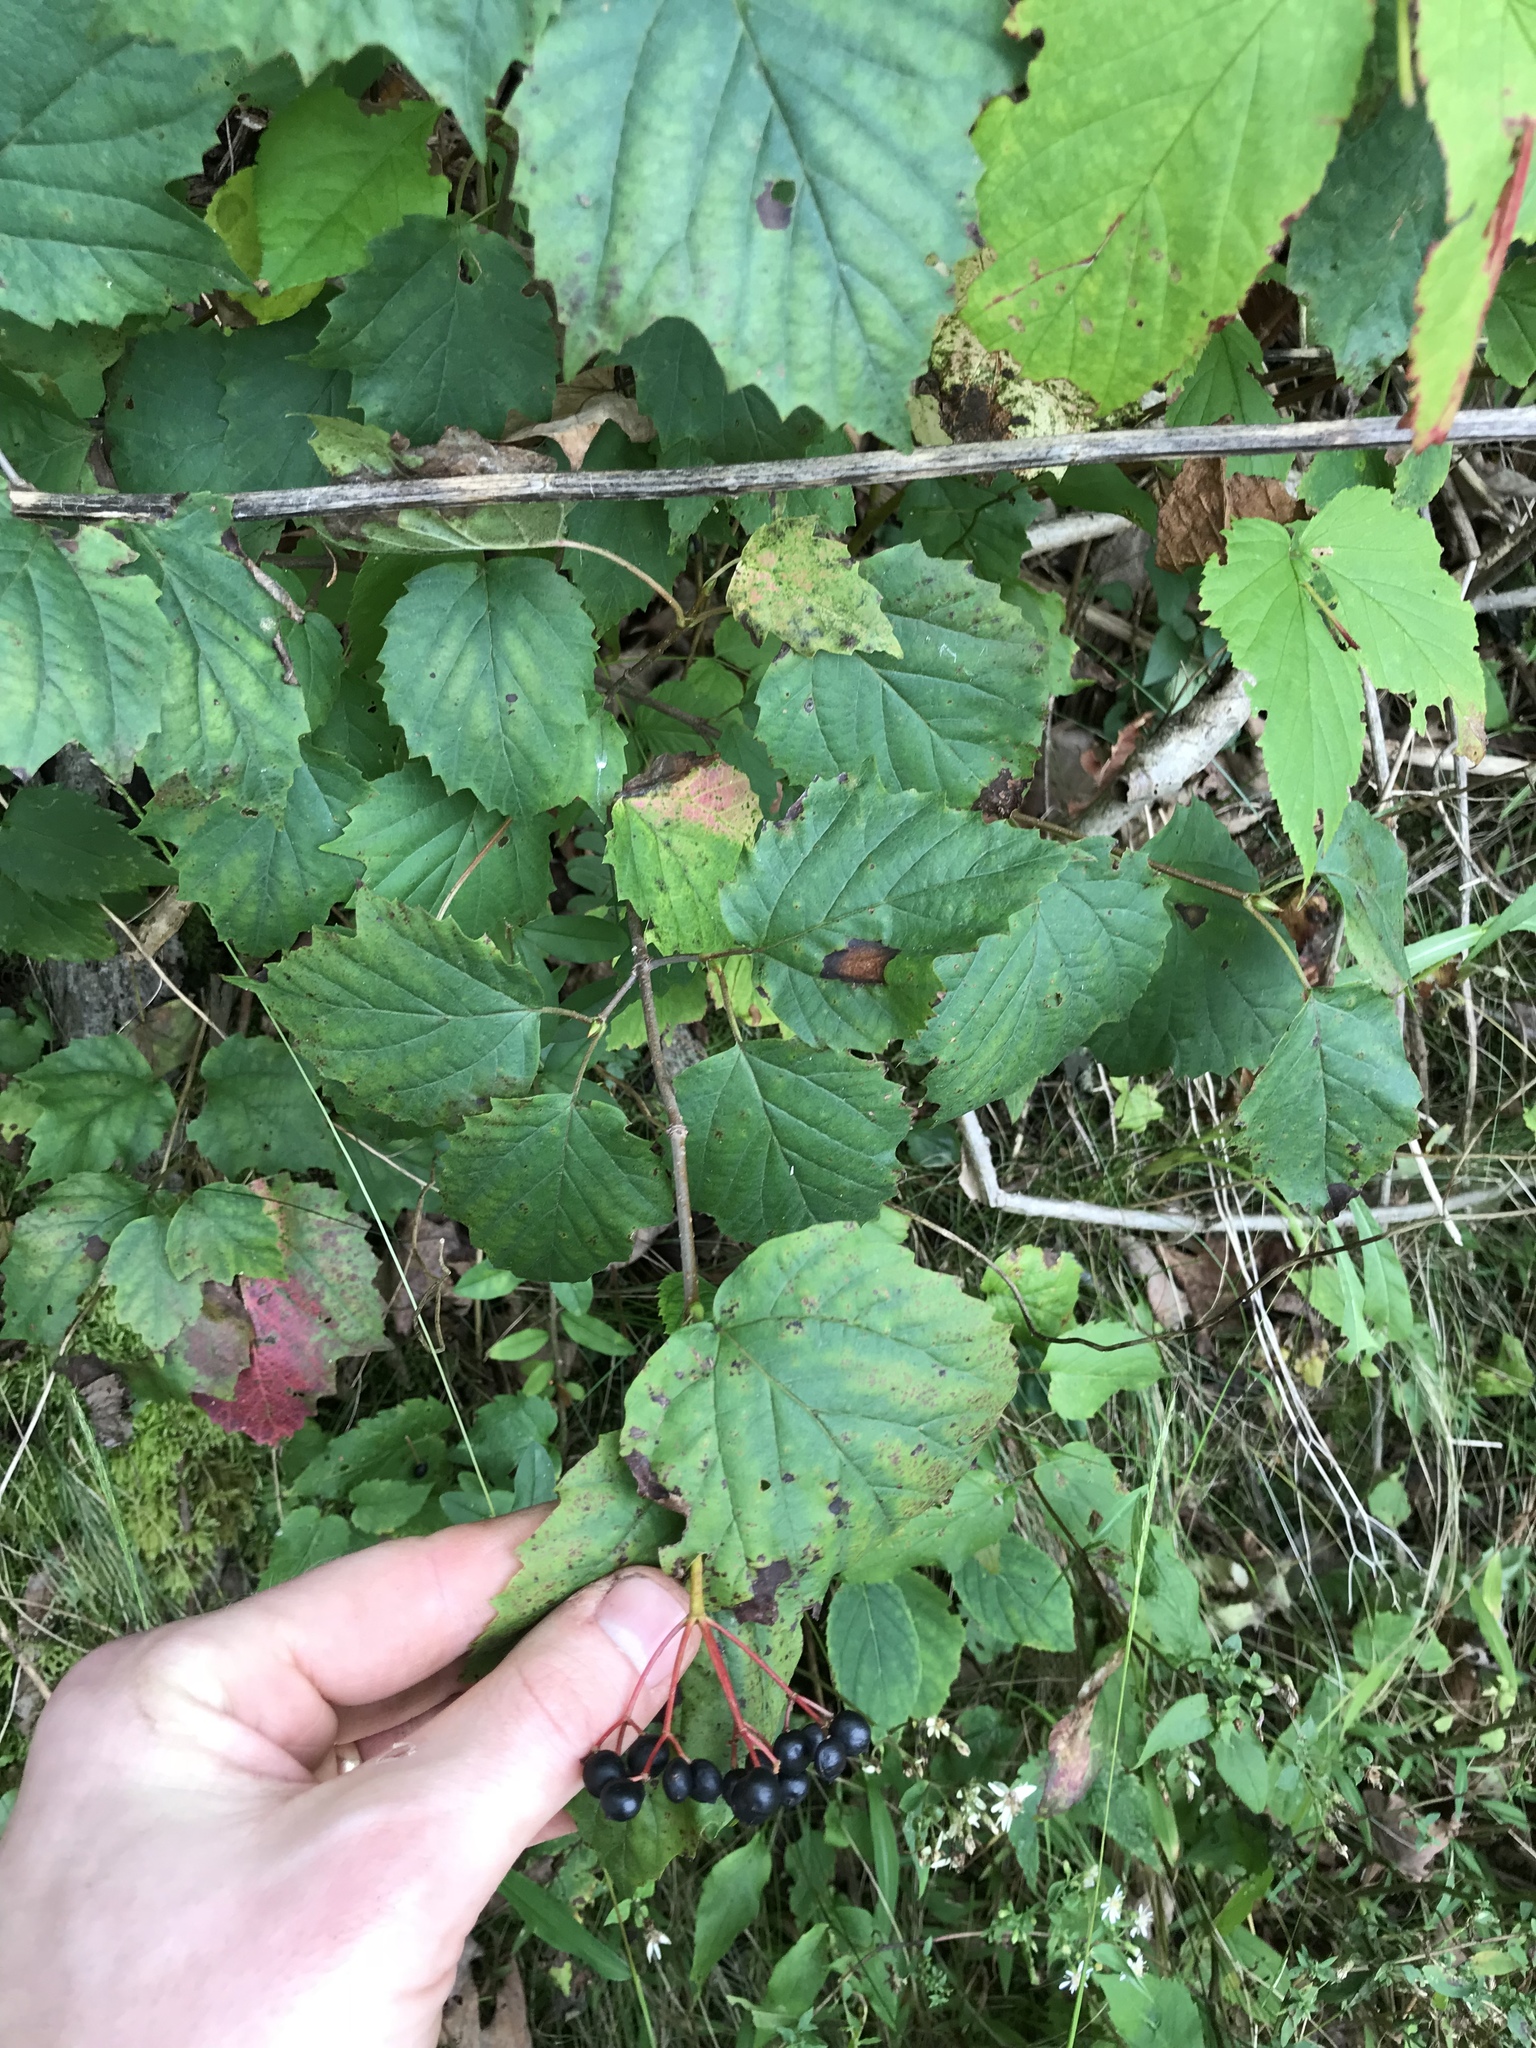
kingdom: Plantae
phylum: Tracheophyta
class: Magnoliopsida
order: Dipsacales
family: Viburnaceae
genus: Viburnum
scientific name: Viburnum acerifolium
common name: Dockmackie
